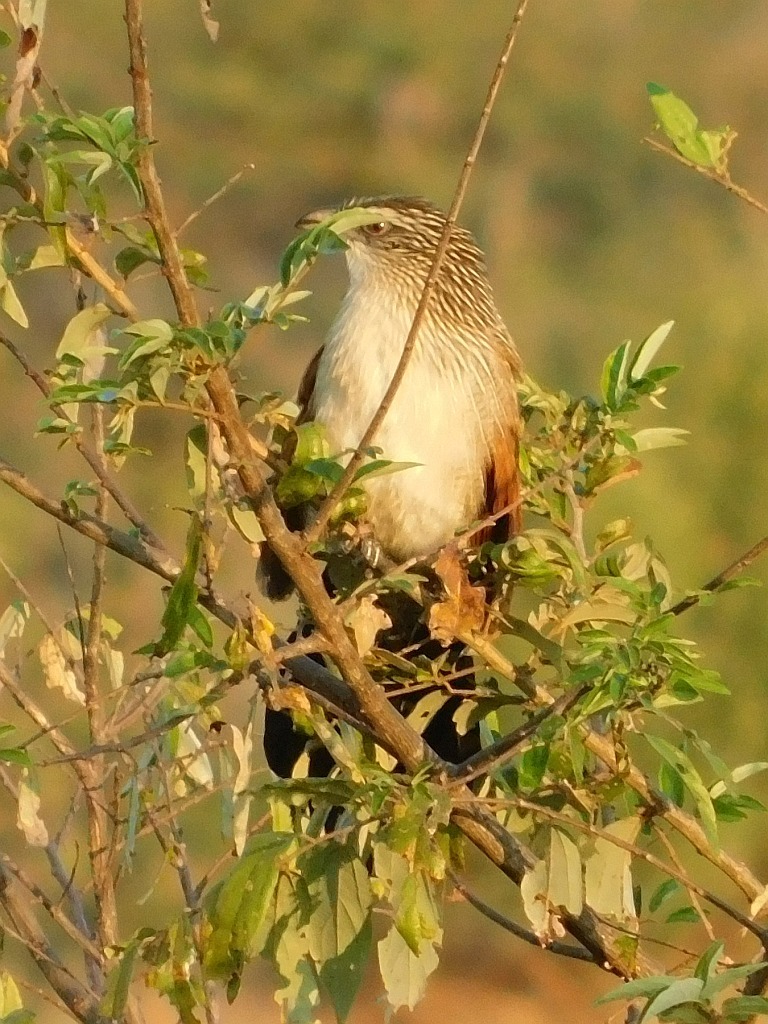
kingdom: Animalia
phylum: Chordata
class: Aves
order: Cuculiformes
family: Cuculidae
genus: Centropus
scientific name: Centropus superciliosus
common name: White-browed coucal
